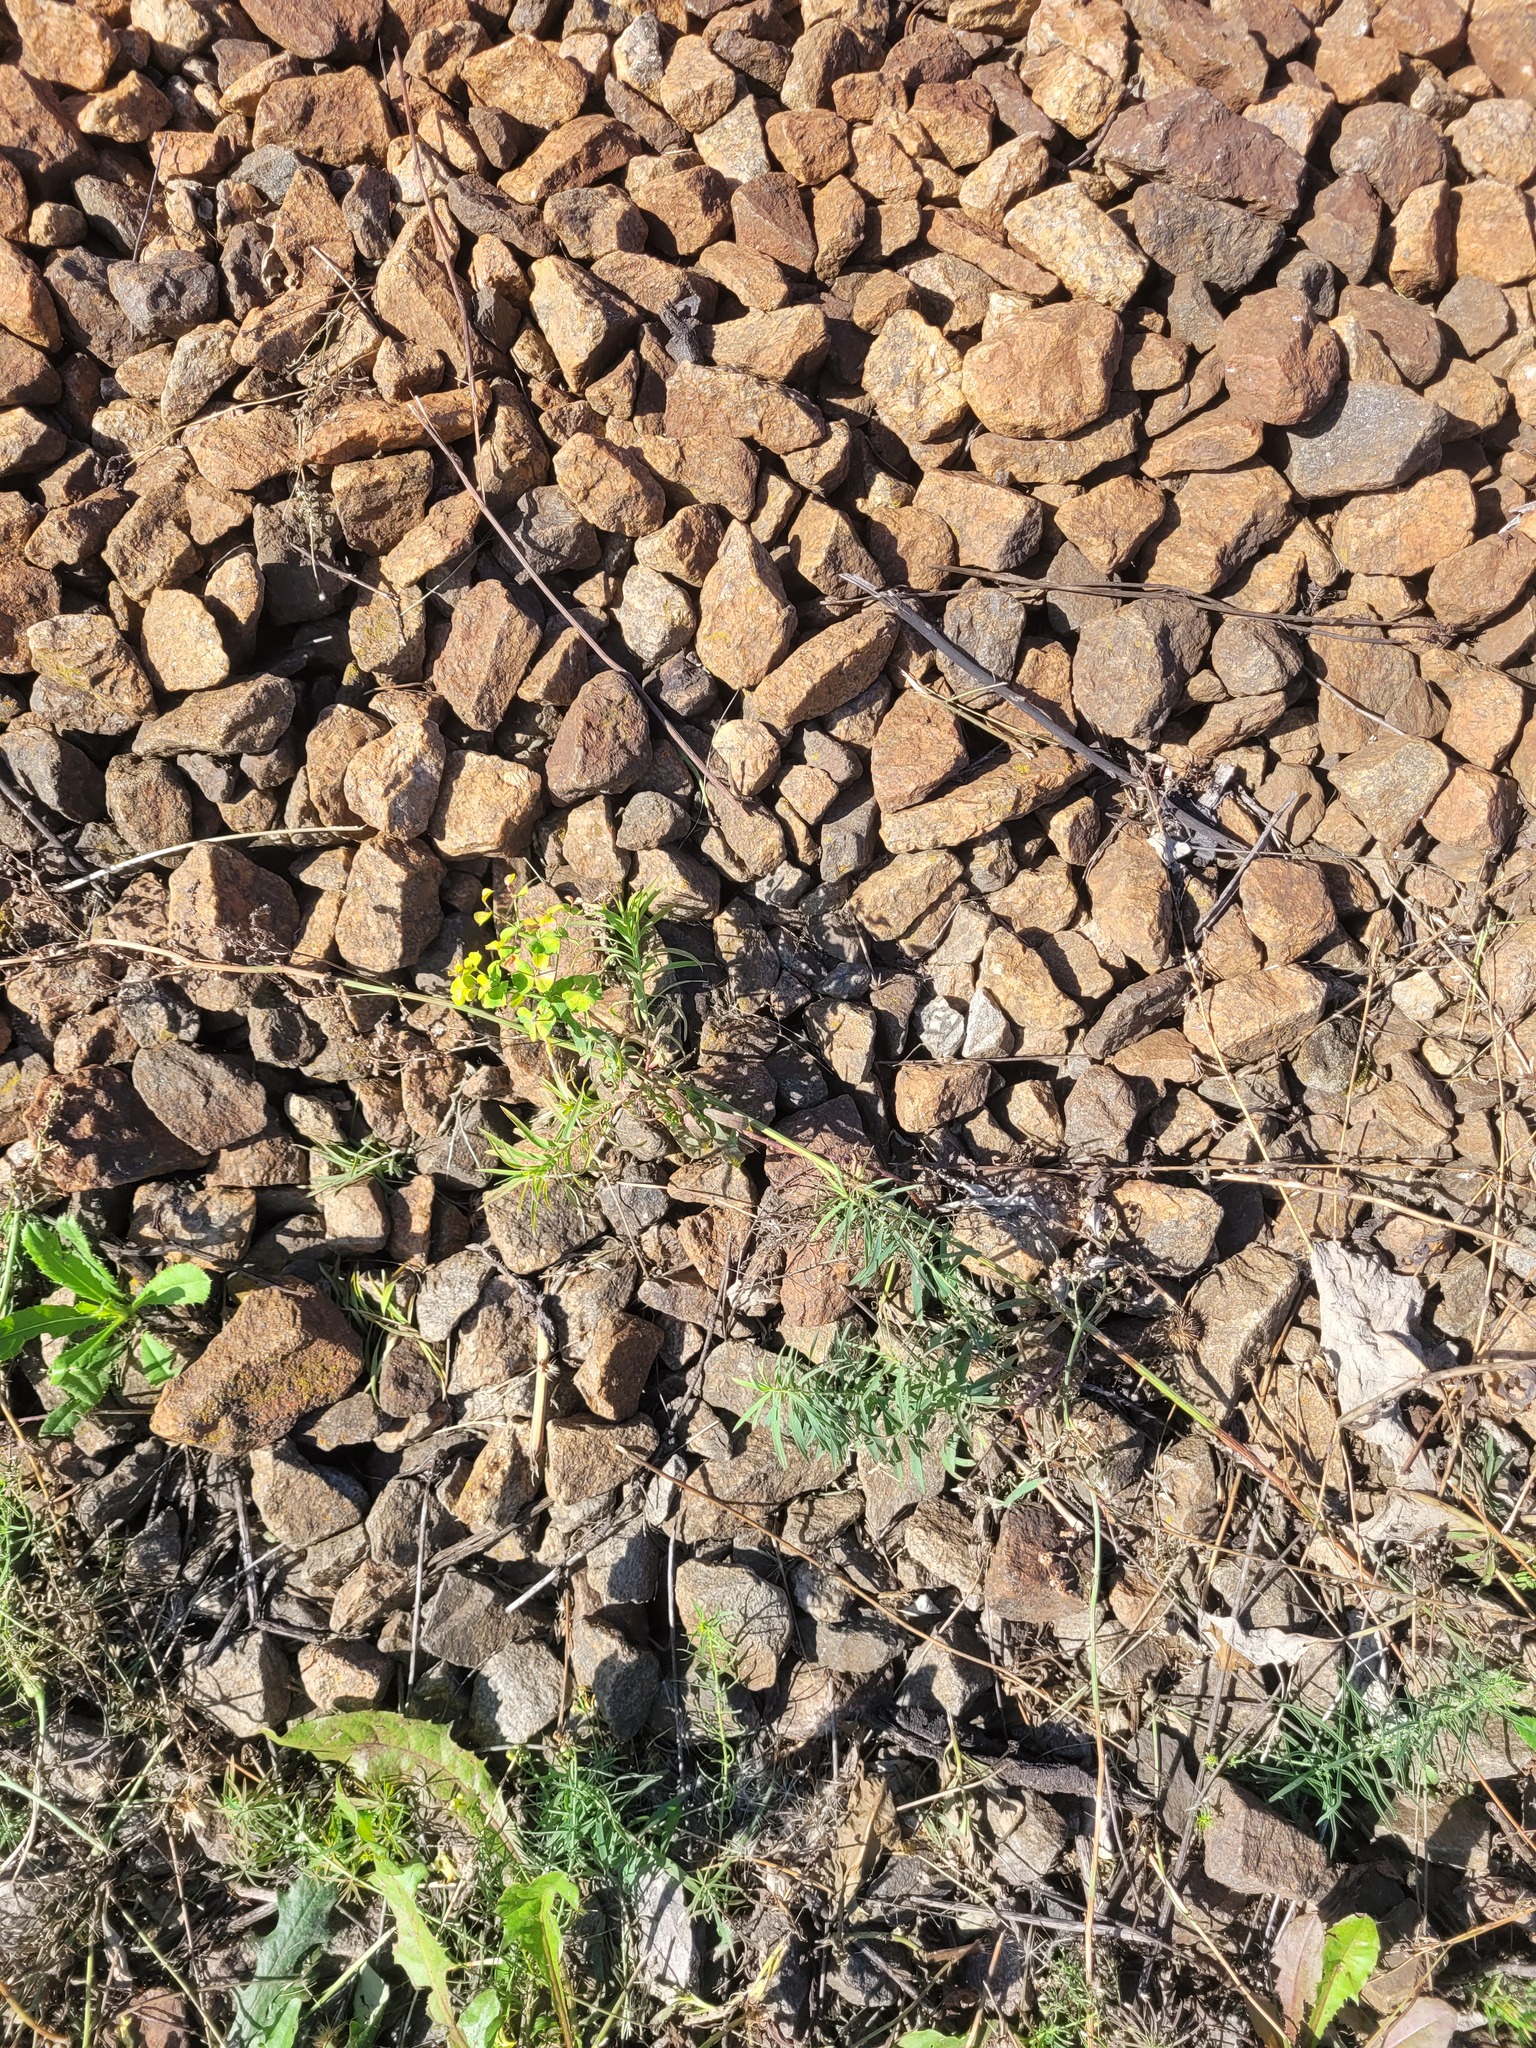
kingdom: Plantae
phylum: Tracheophyta
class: Magnoliopsida
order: Malpighiales
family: Euphorbiaceae
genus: Euphorbia
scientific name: Euphorbia virgata
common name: Leafy spurge
